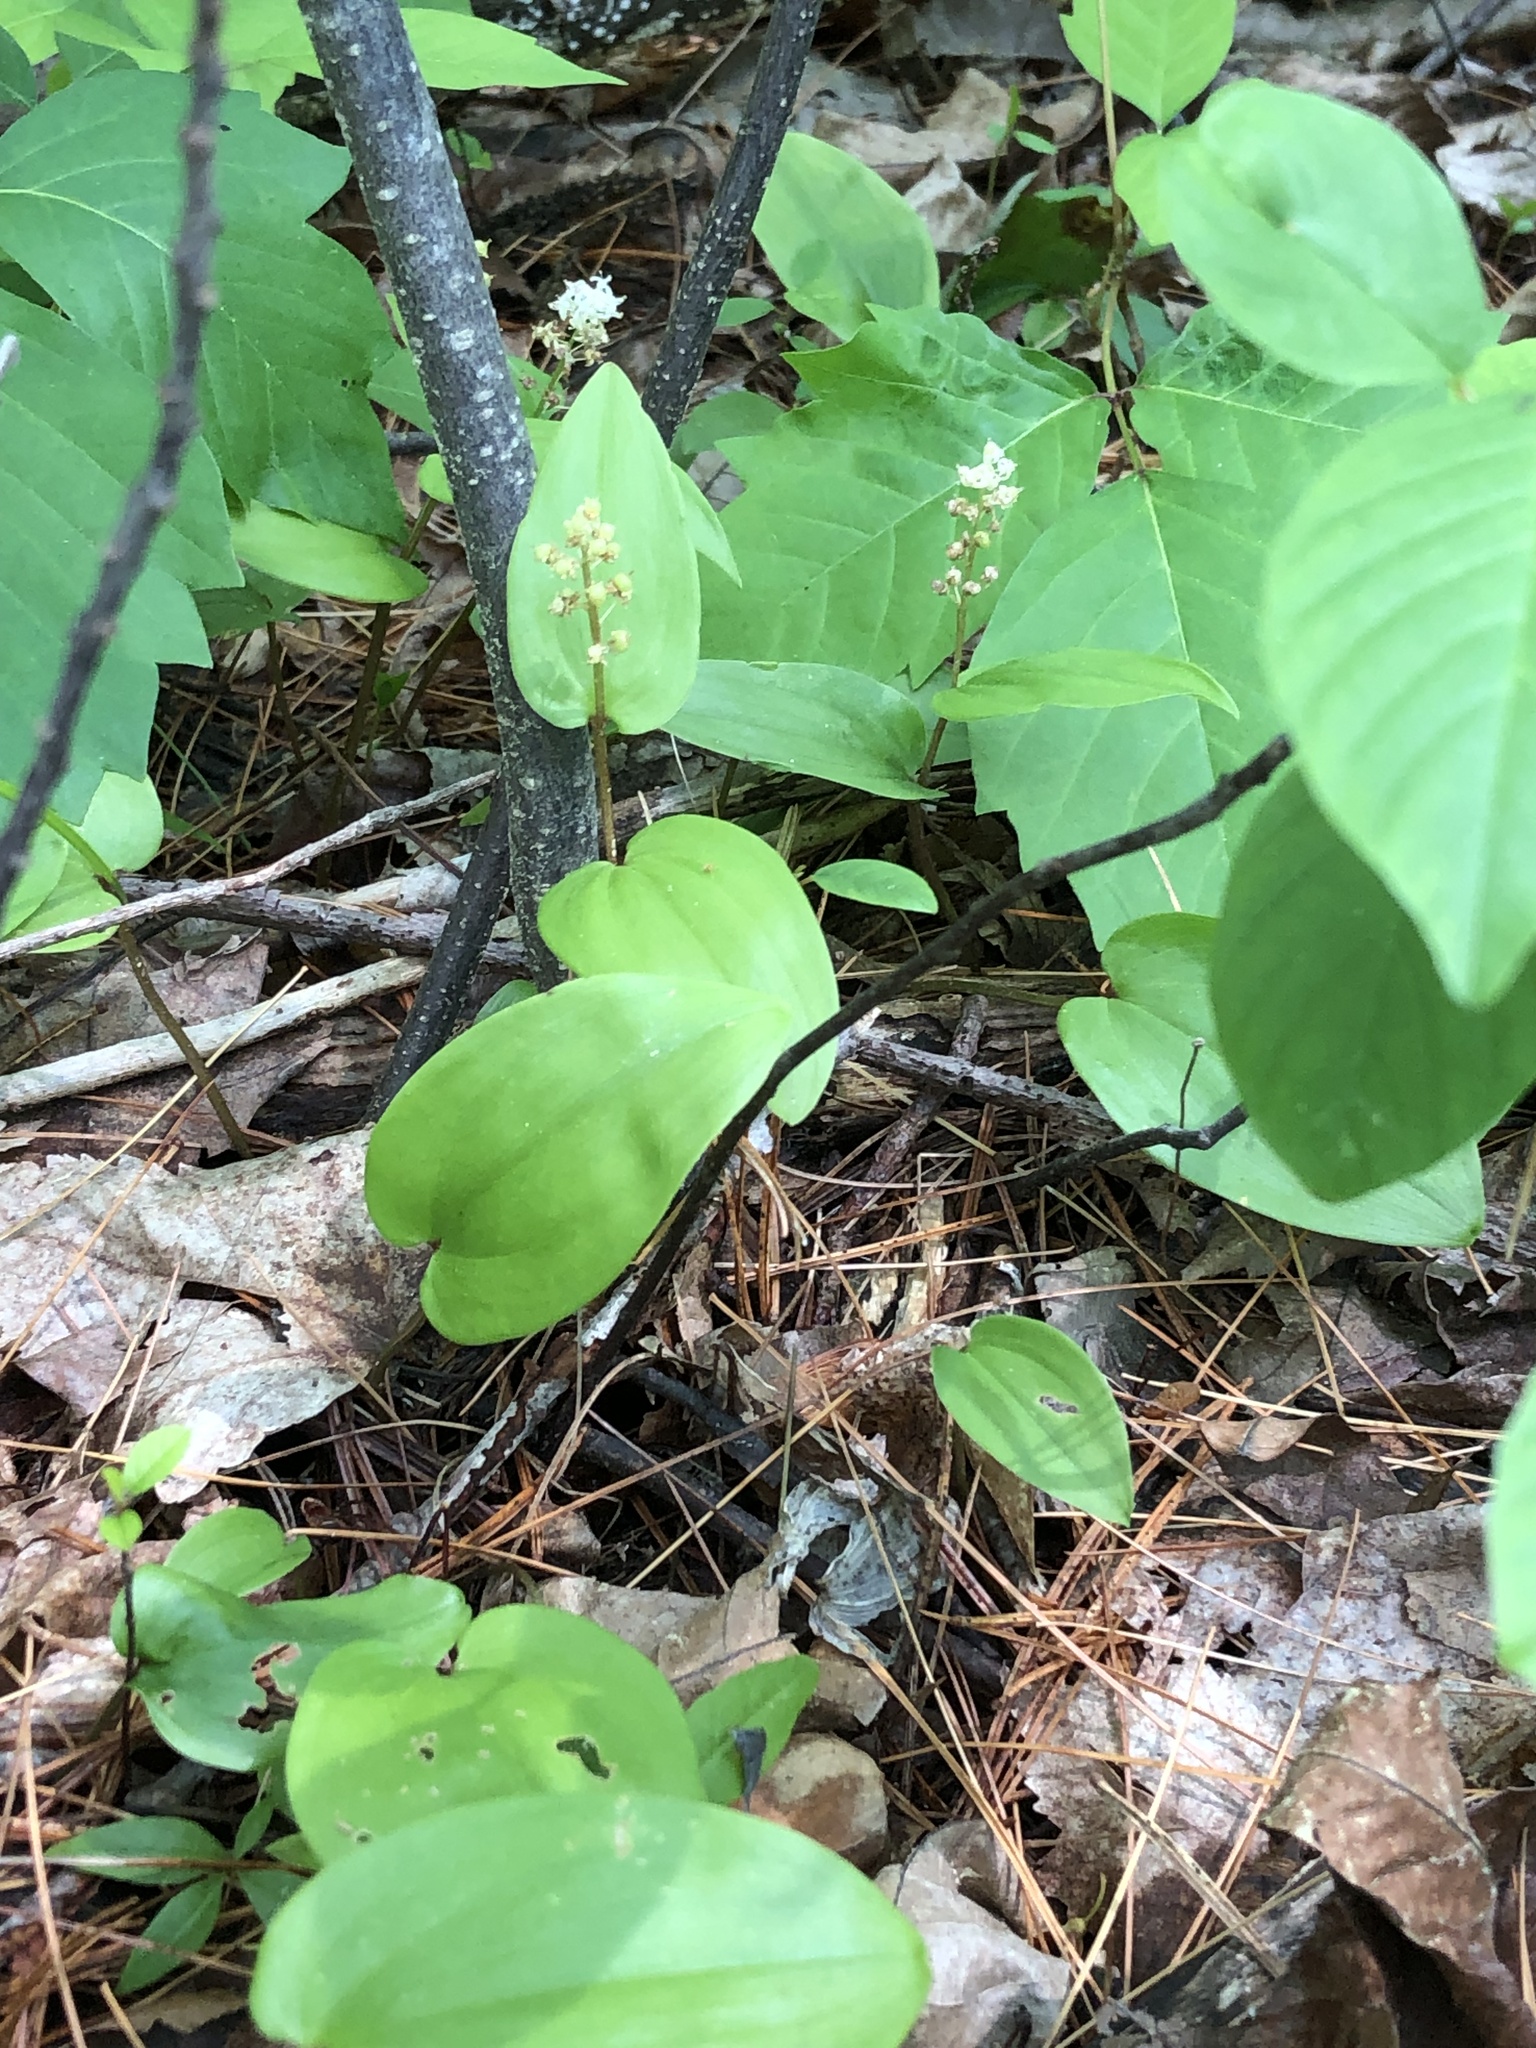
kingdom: Plantae
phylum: Tracheophyta
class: Liliopsida
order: Asparagales
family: Asparagaceae
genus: Maianthemum
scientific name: Maianthemum canadense
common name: False lily-of-the-valley
